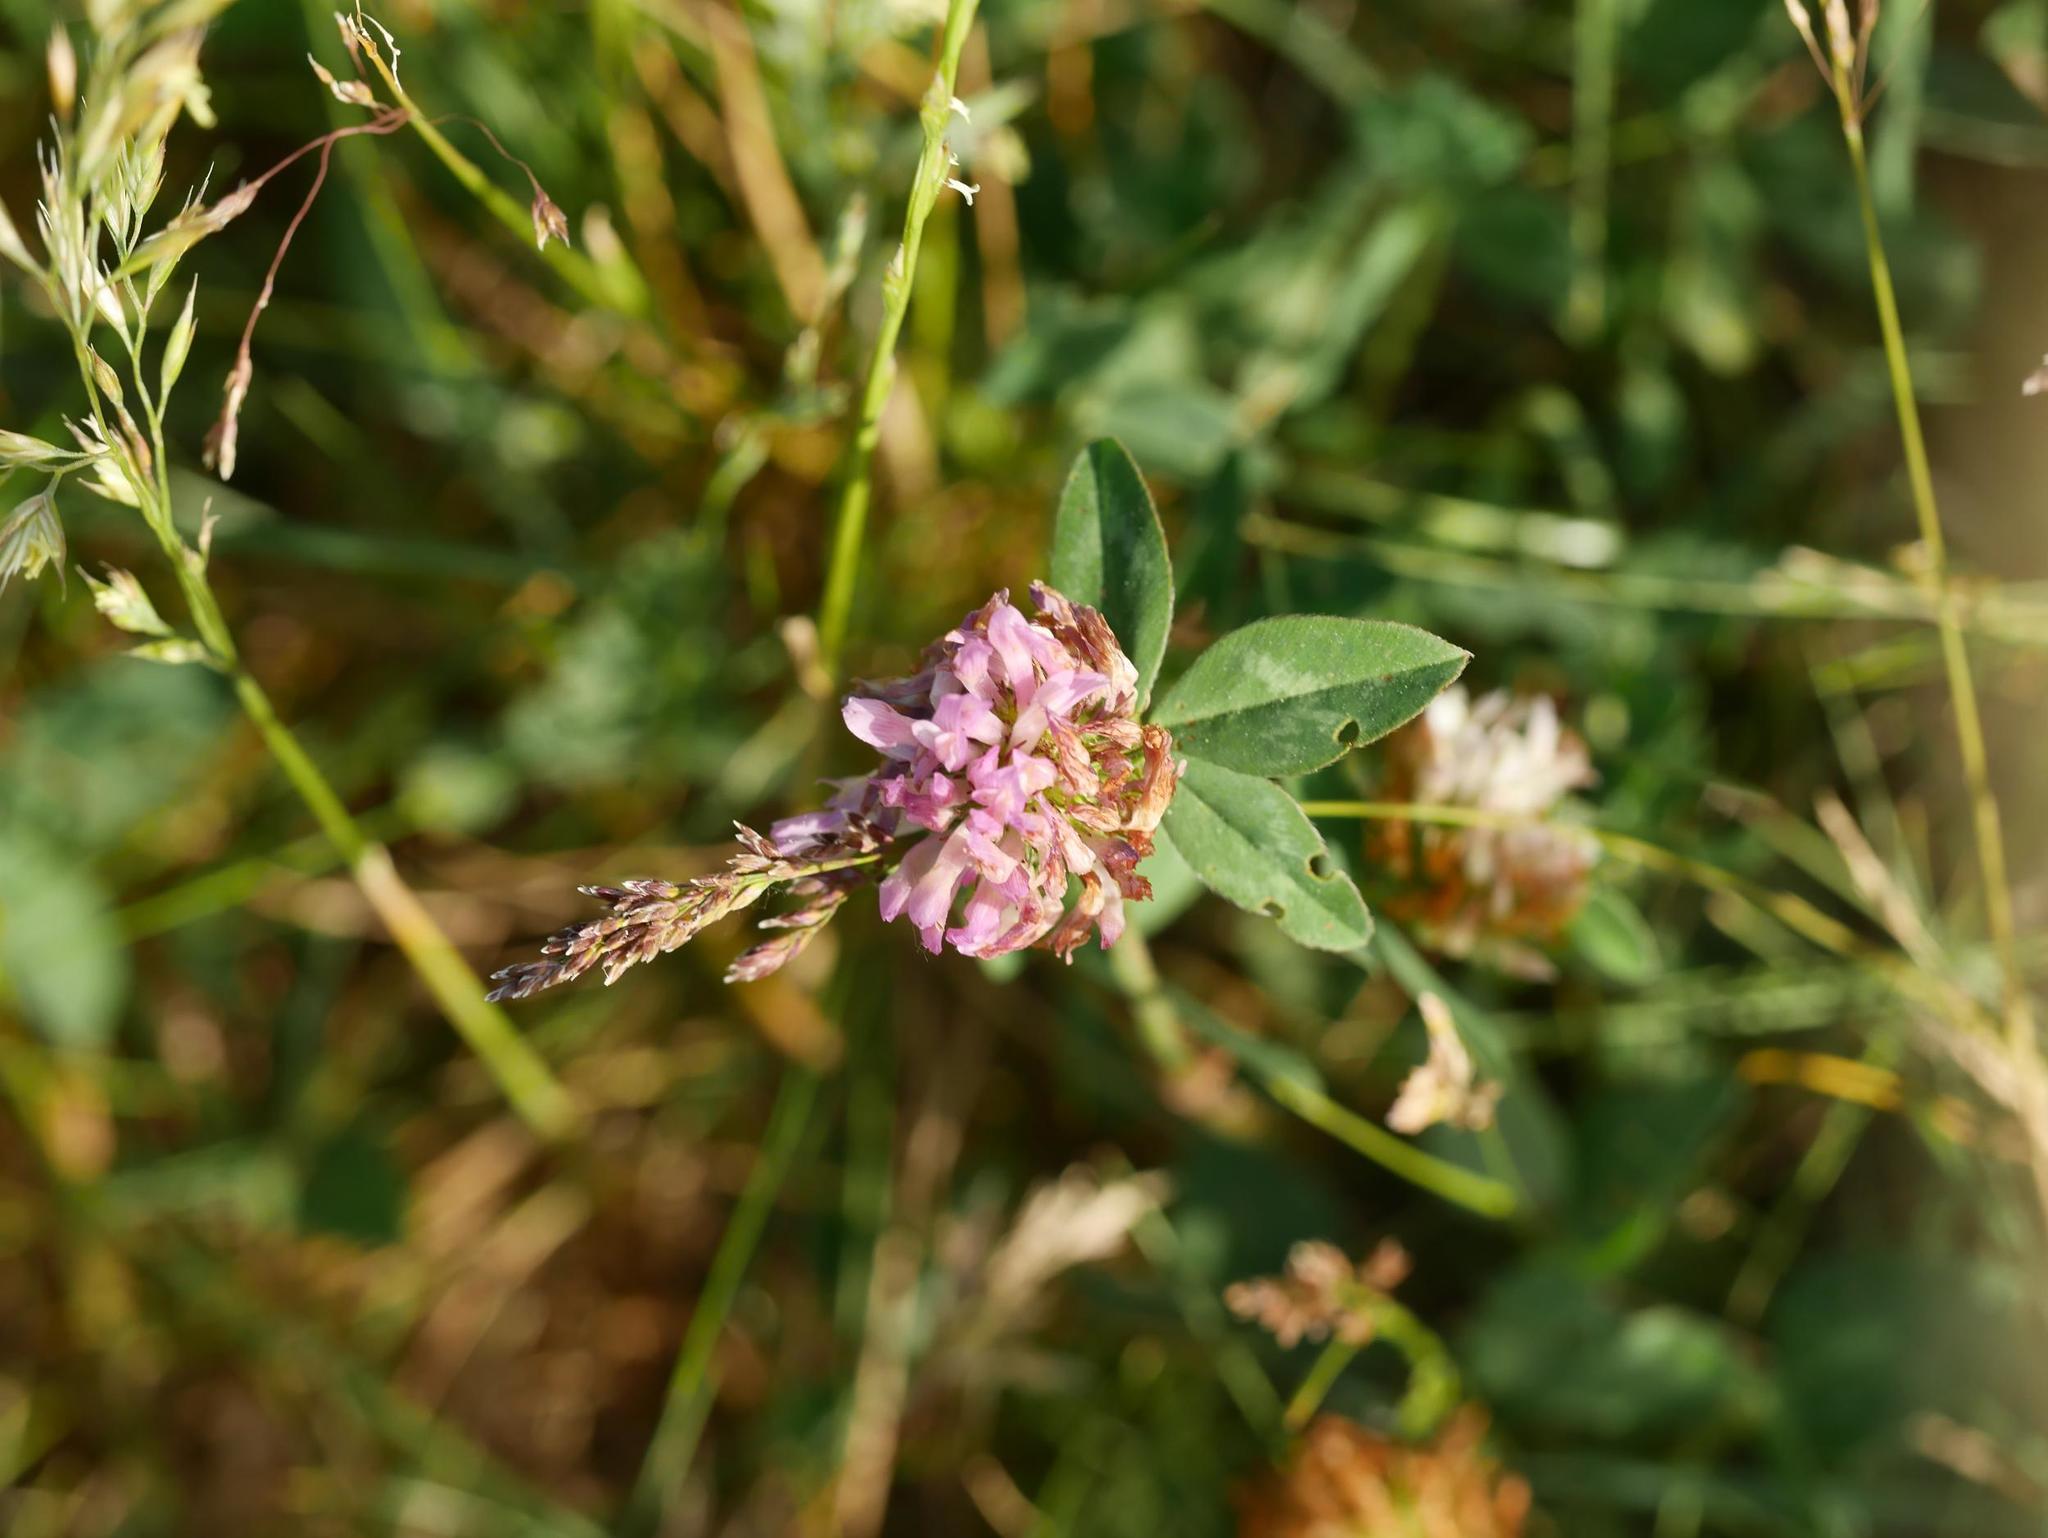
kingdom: Plantae
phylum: Tracheophyta
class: Magnoliopsida
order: Fabales
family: Fabaceae
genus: Trifolium
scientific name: Trifolium pratense
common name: Red clover
